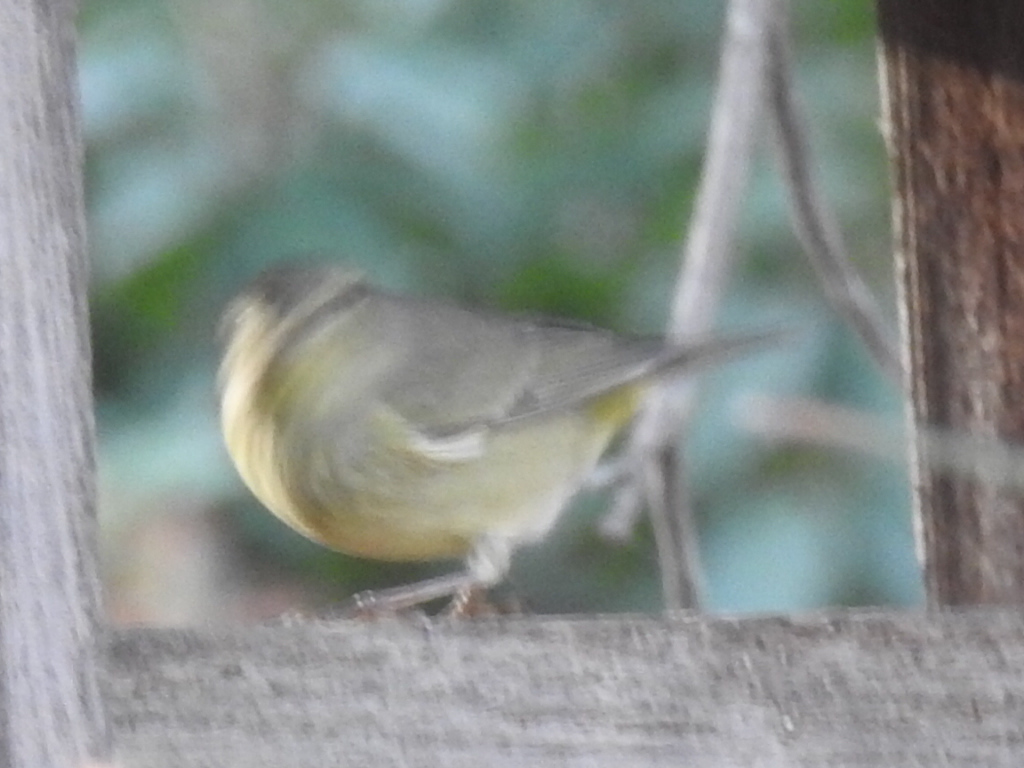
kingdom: Animalia
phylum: Chordata
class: Aves
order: Passeriformes
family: Parulidae
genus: Leiothlypis
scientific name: Leiothlypis celata
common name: Orange-crowned warbler
